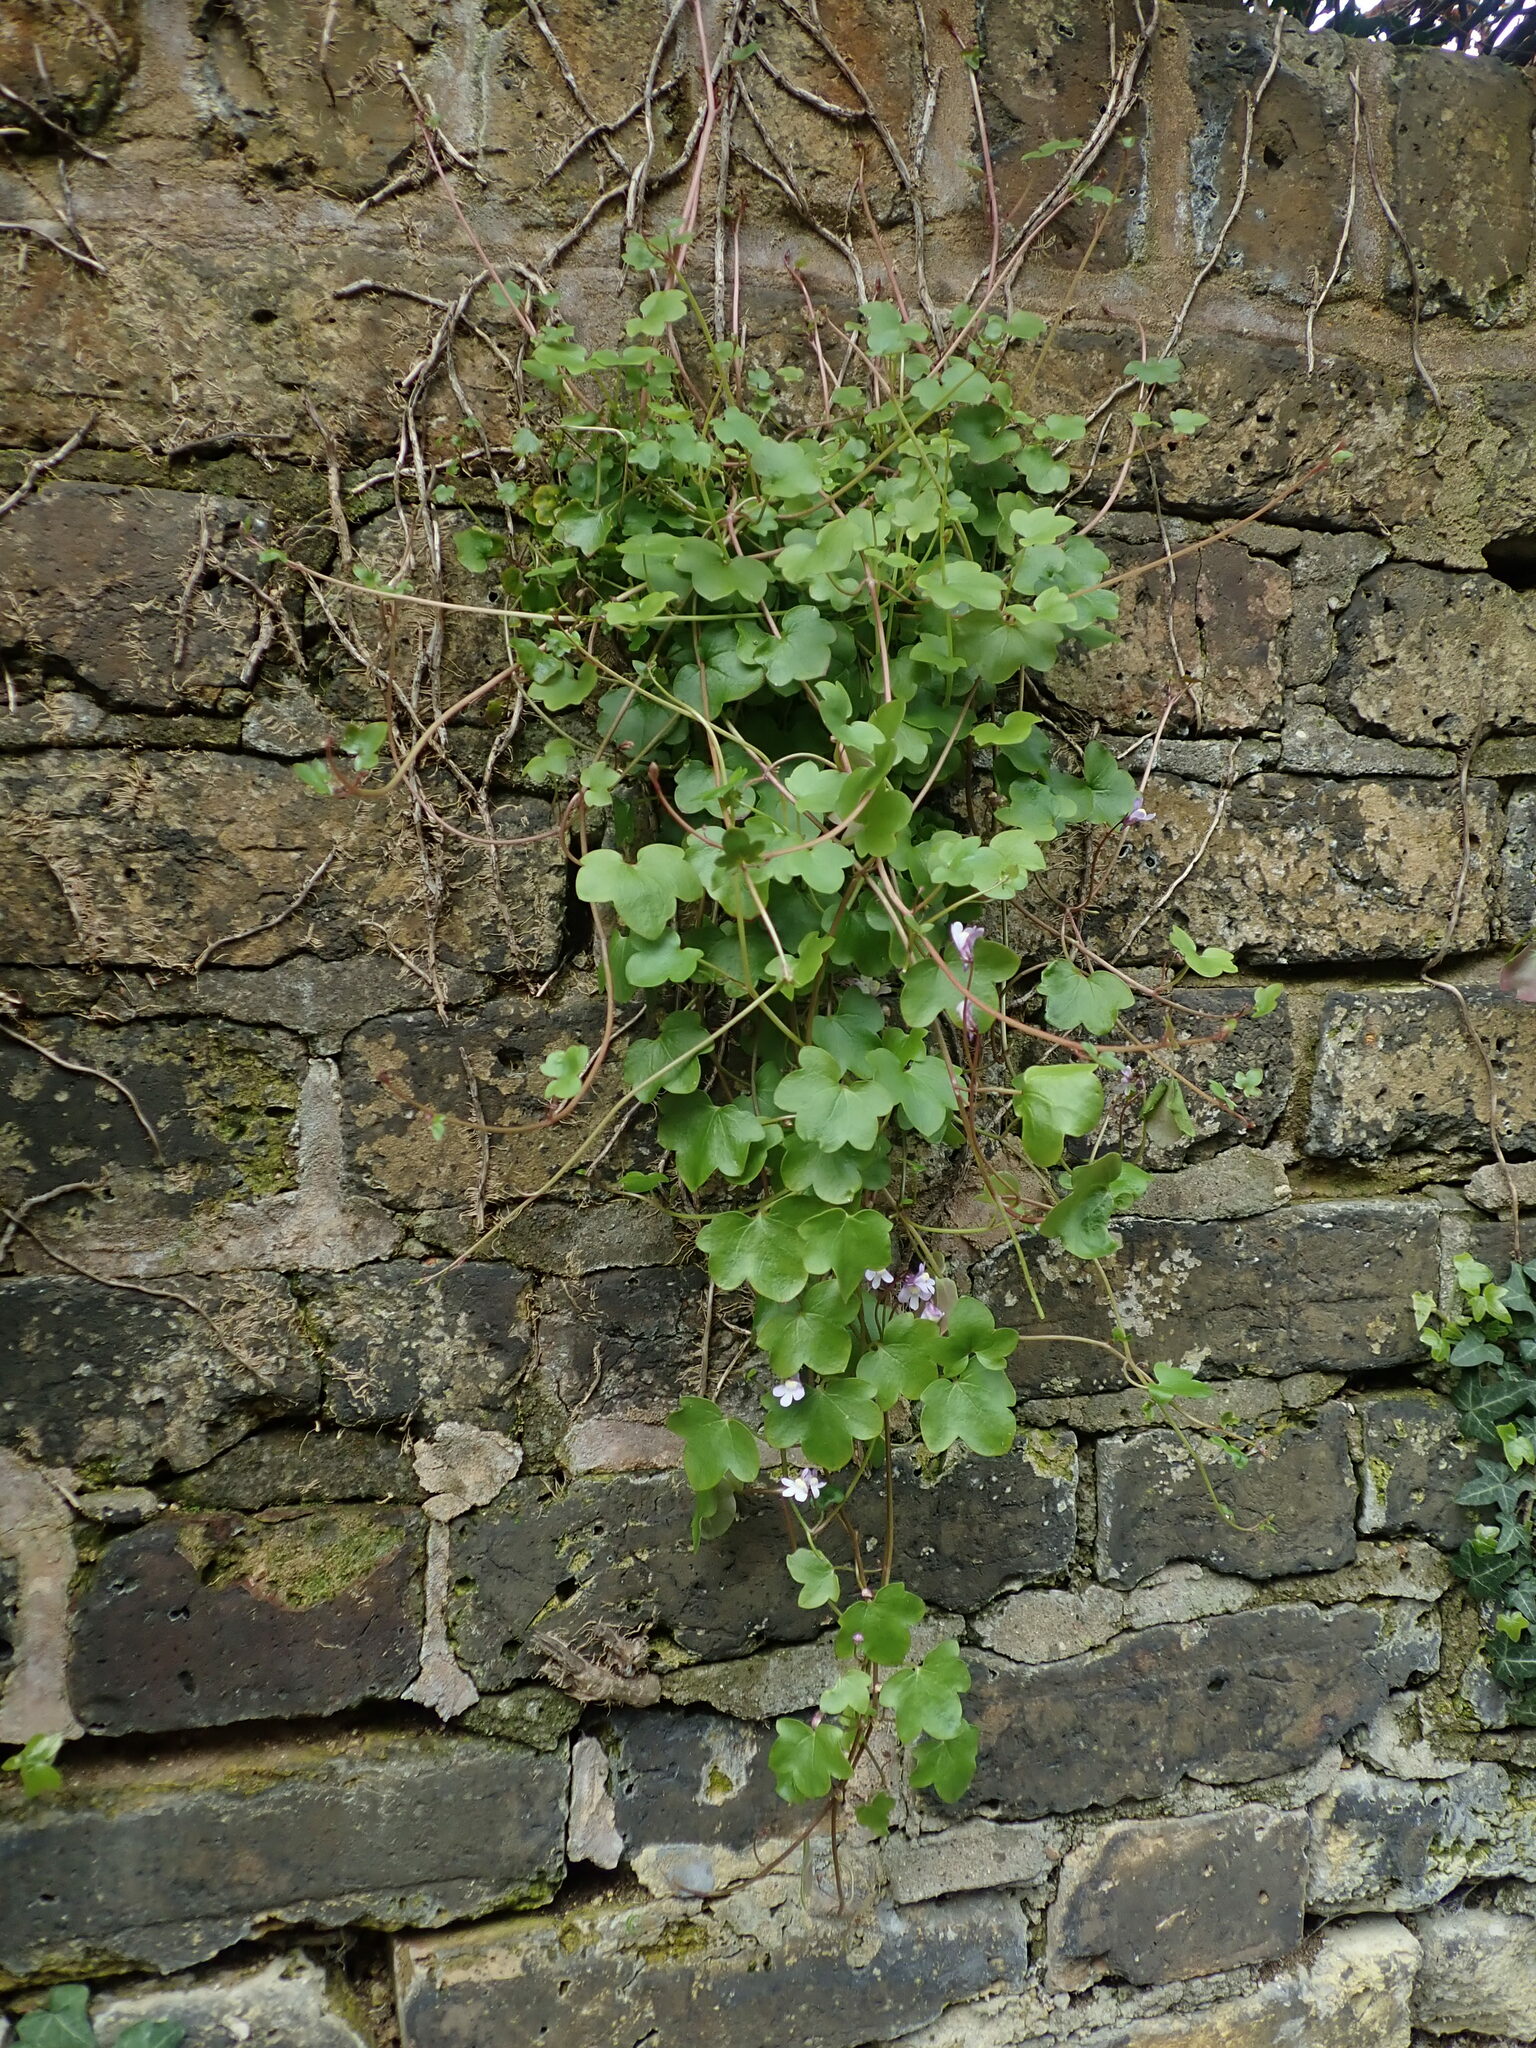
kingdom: Plantae
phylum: Tracheophyta
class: Magnoliopsida
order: Lamiales
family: Plantaginaceae
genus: Cymbalaria
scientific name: Cymbalaria muralis
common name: Ivy-leaved toadflax
